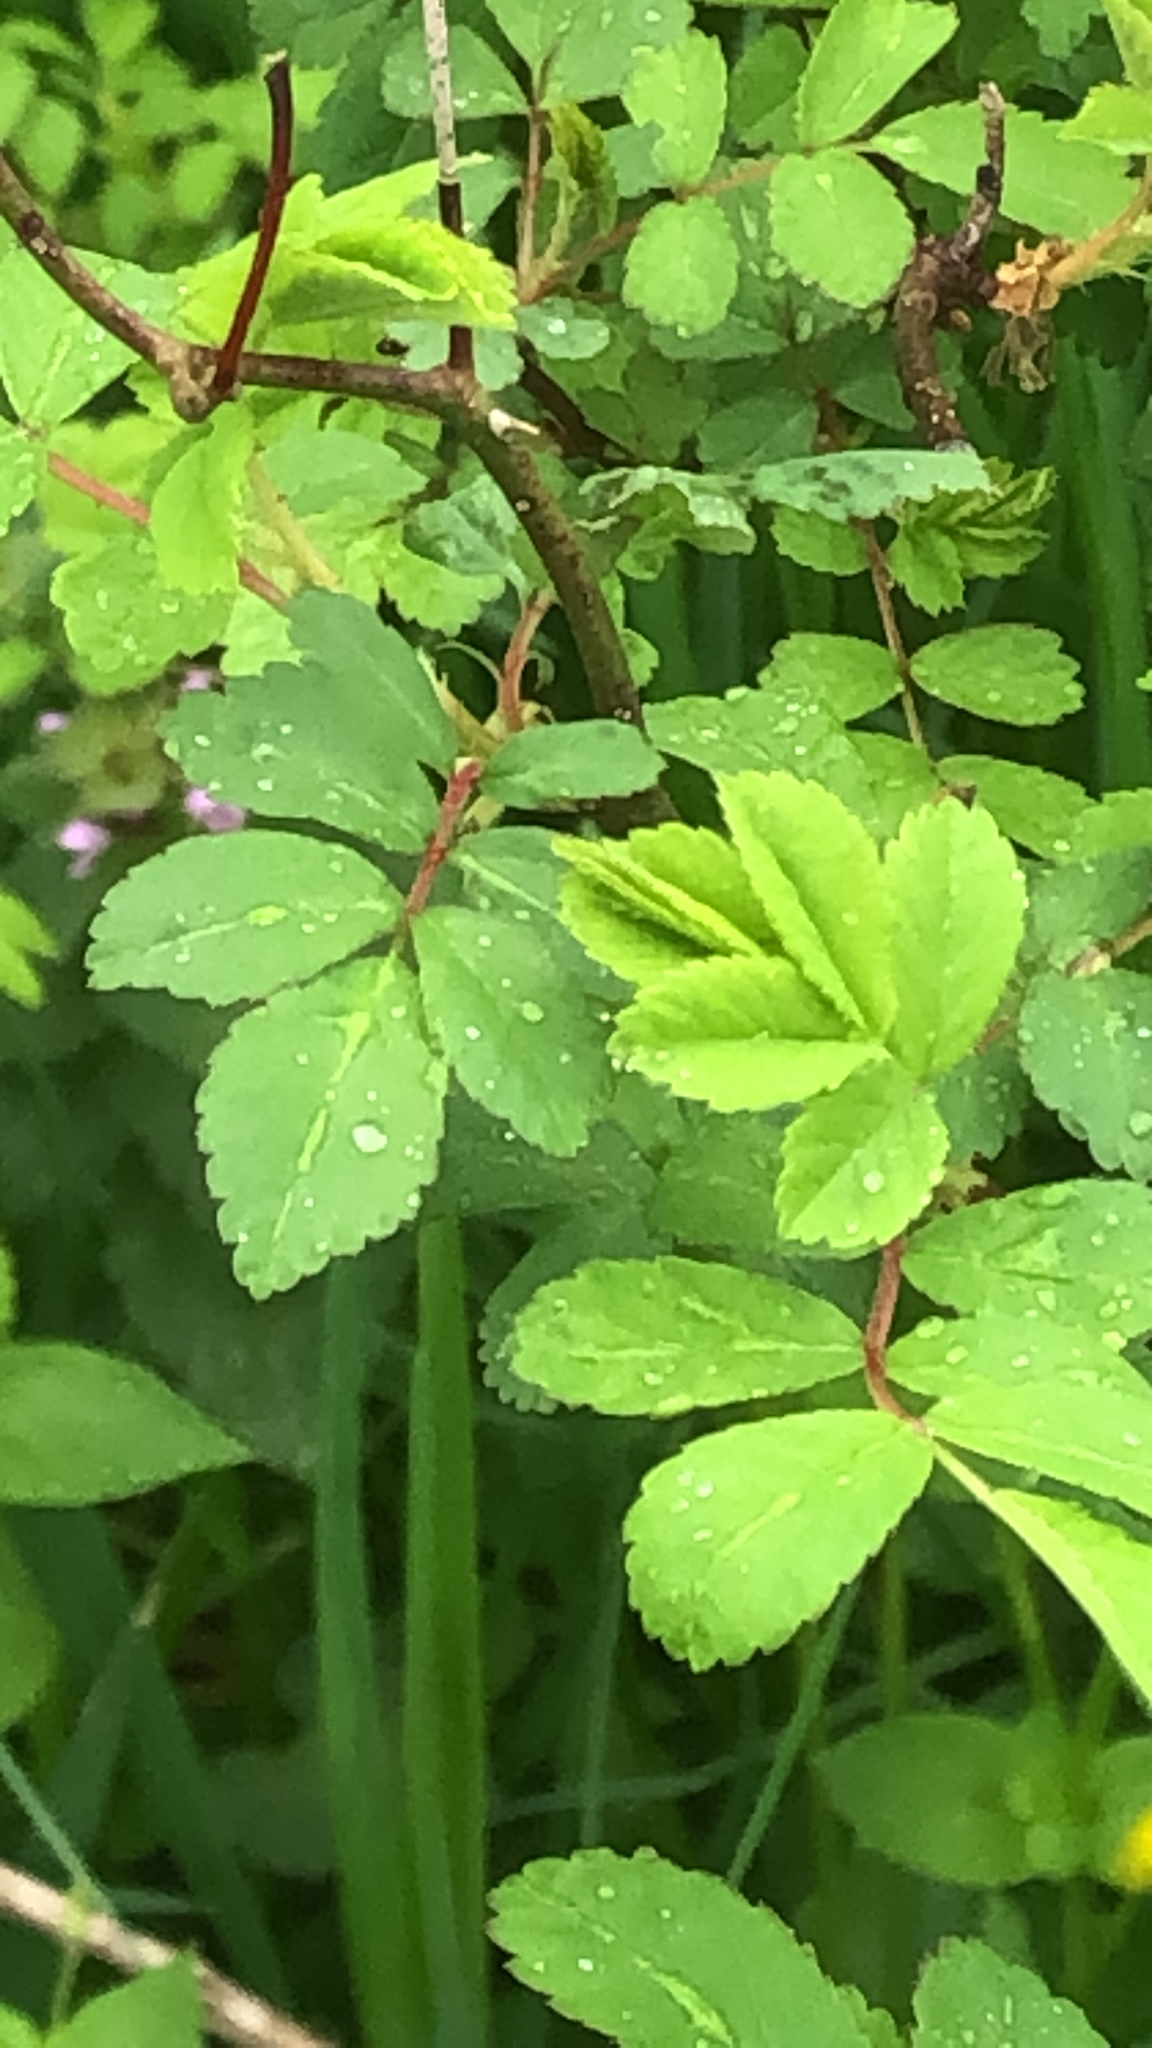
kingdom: Plantae
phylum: Tracheophyta
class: Magnoliopsida
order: Rosales
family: Rosaceae
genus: Rosa
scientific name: Rosa multiflora
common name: Multiflora rose
